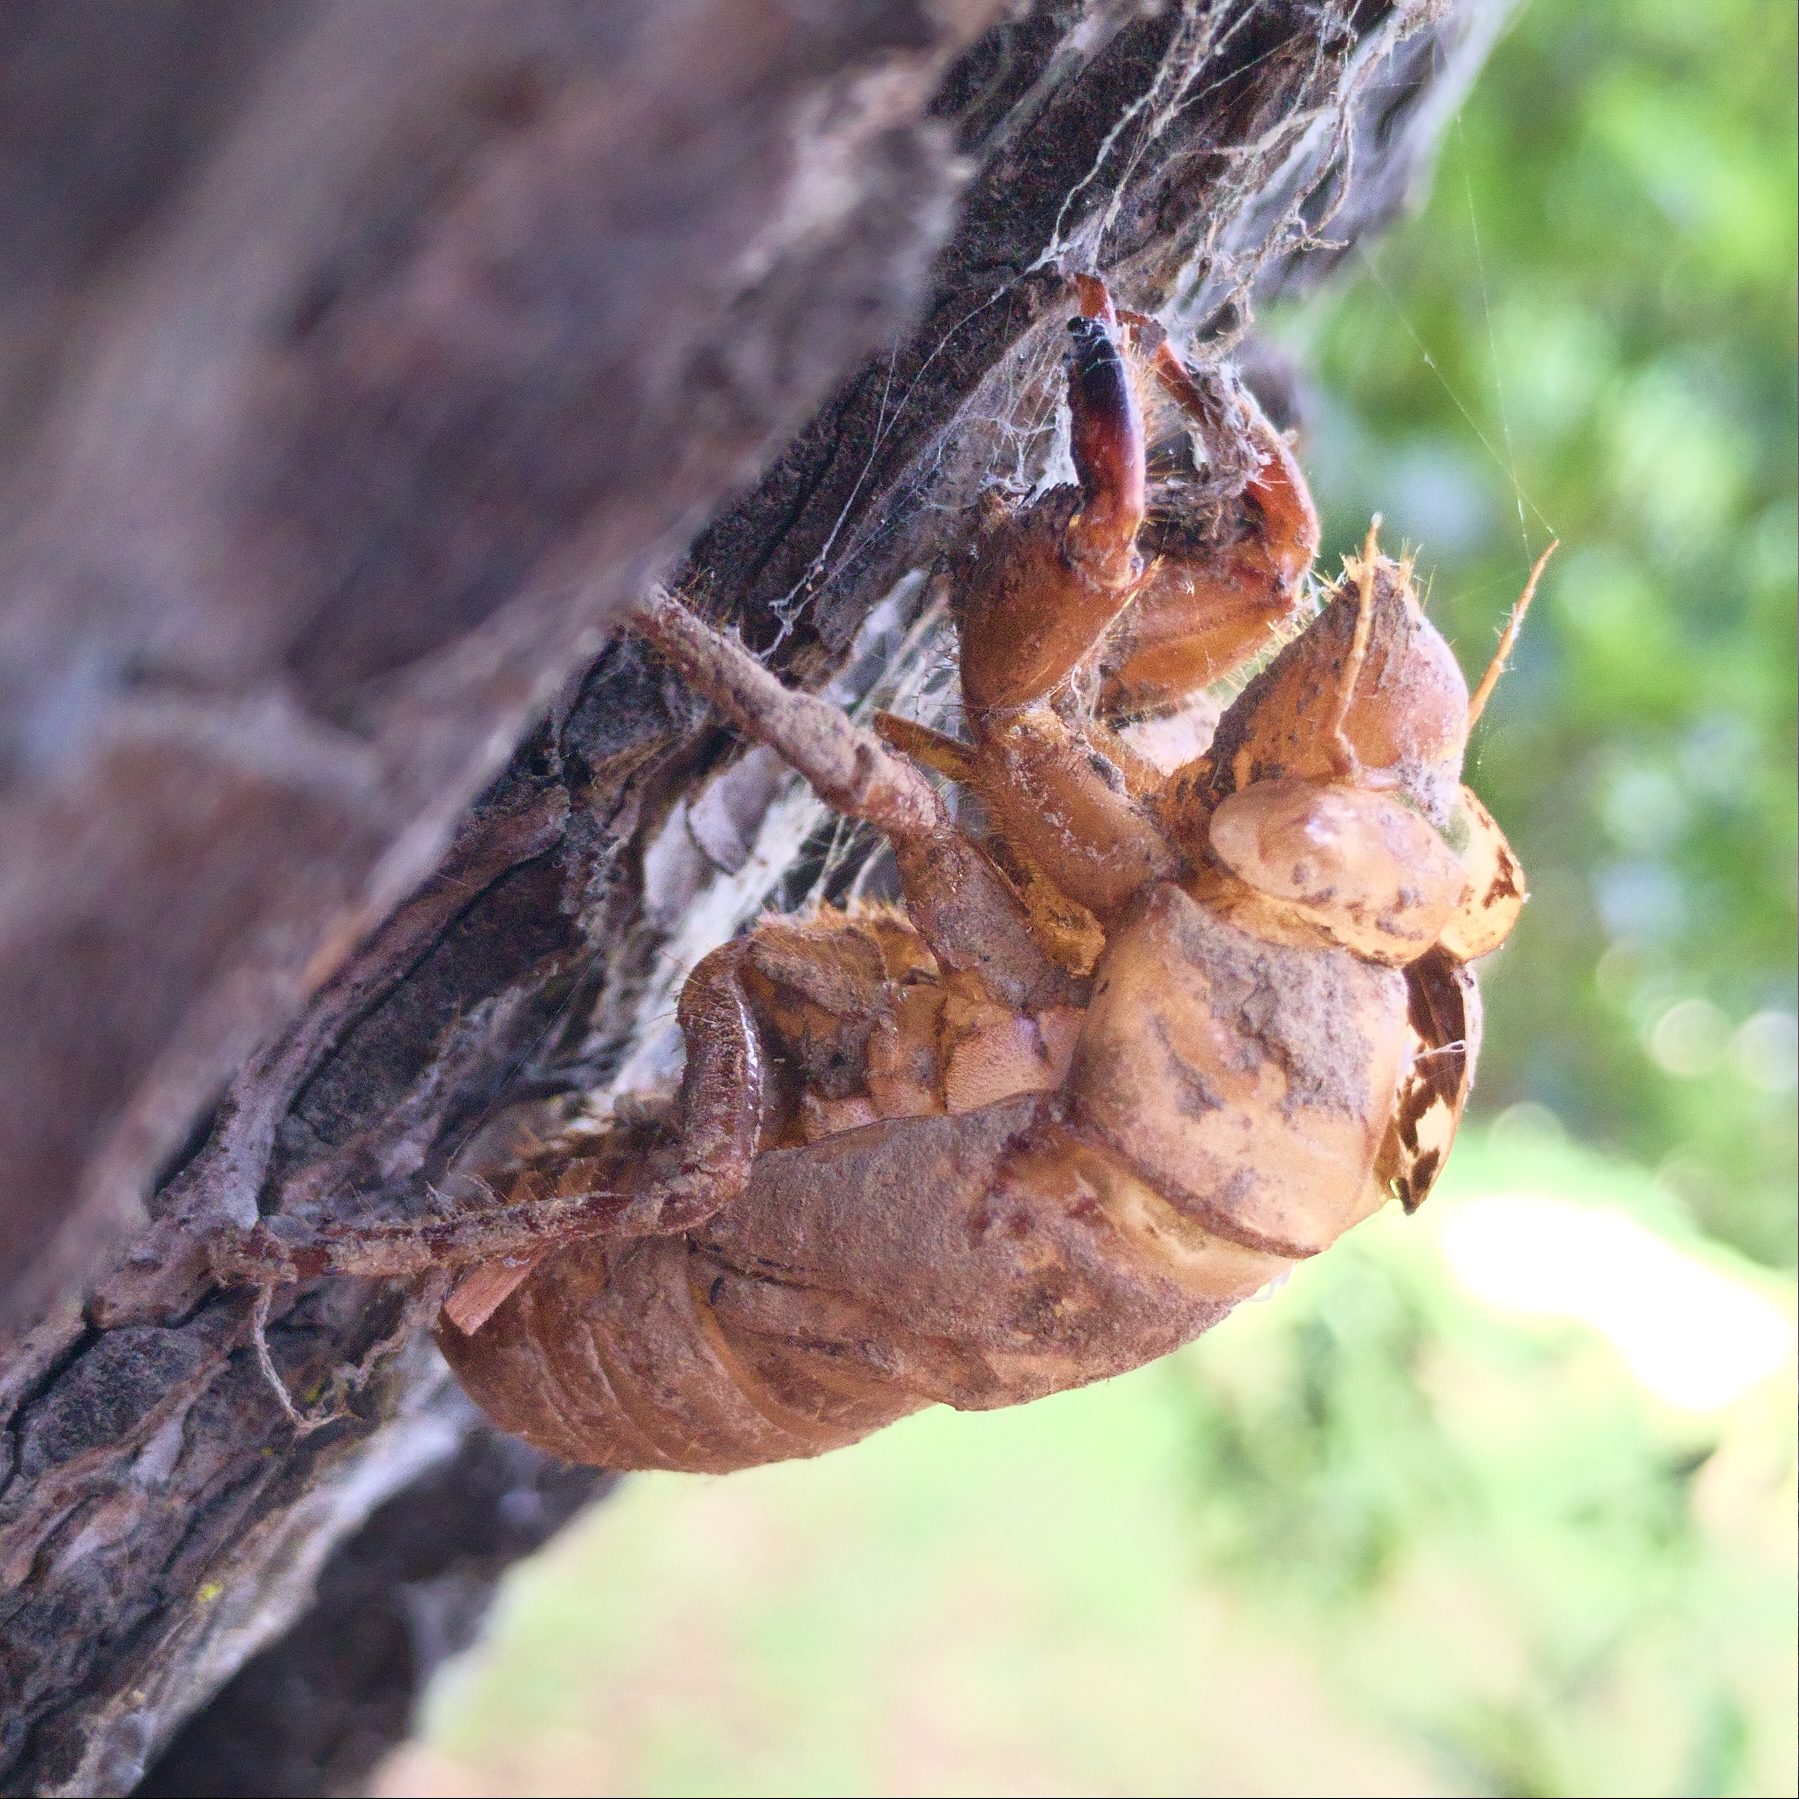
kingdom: Animalia
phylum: Arthropoda
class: Insecta
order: Hemiptera
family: Cicadidae
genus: Cyclochila
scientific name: Cyclochila australasiae
